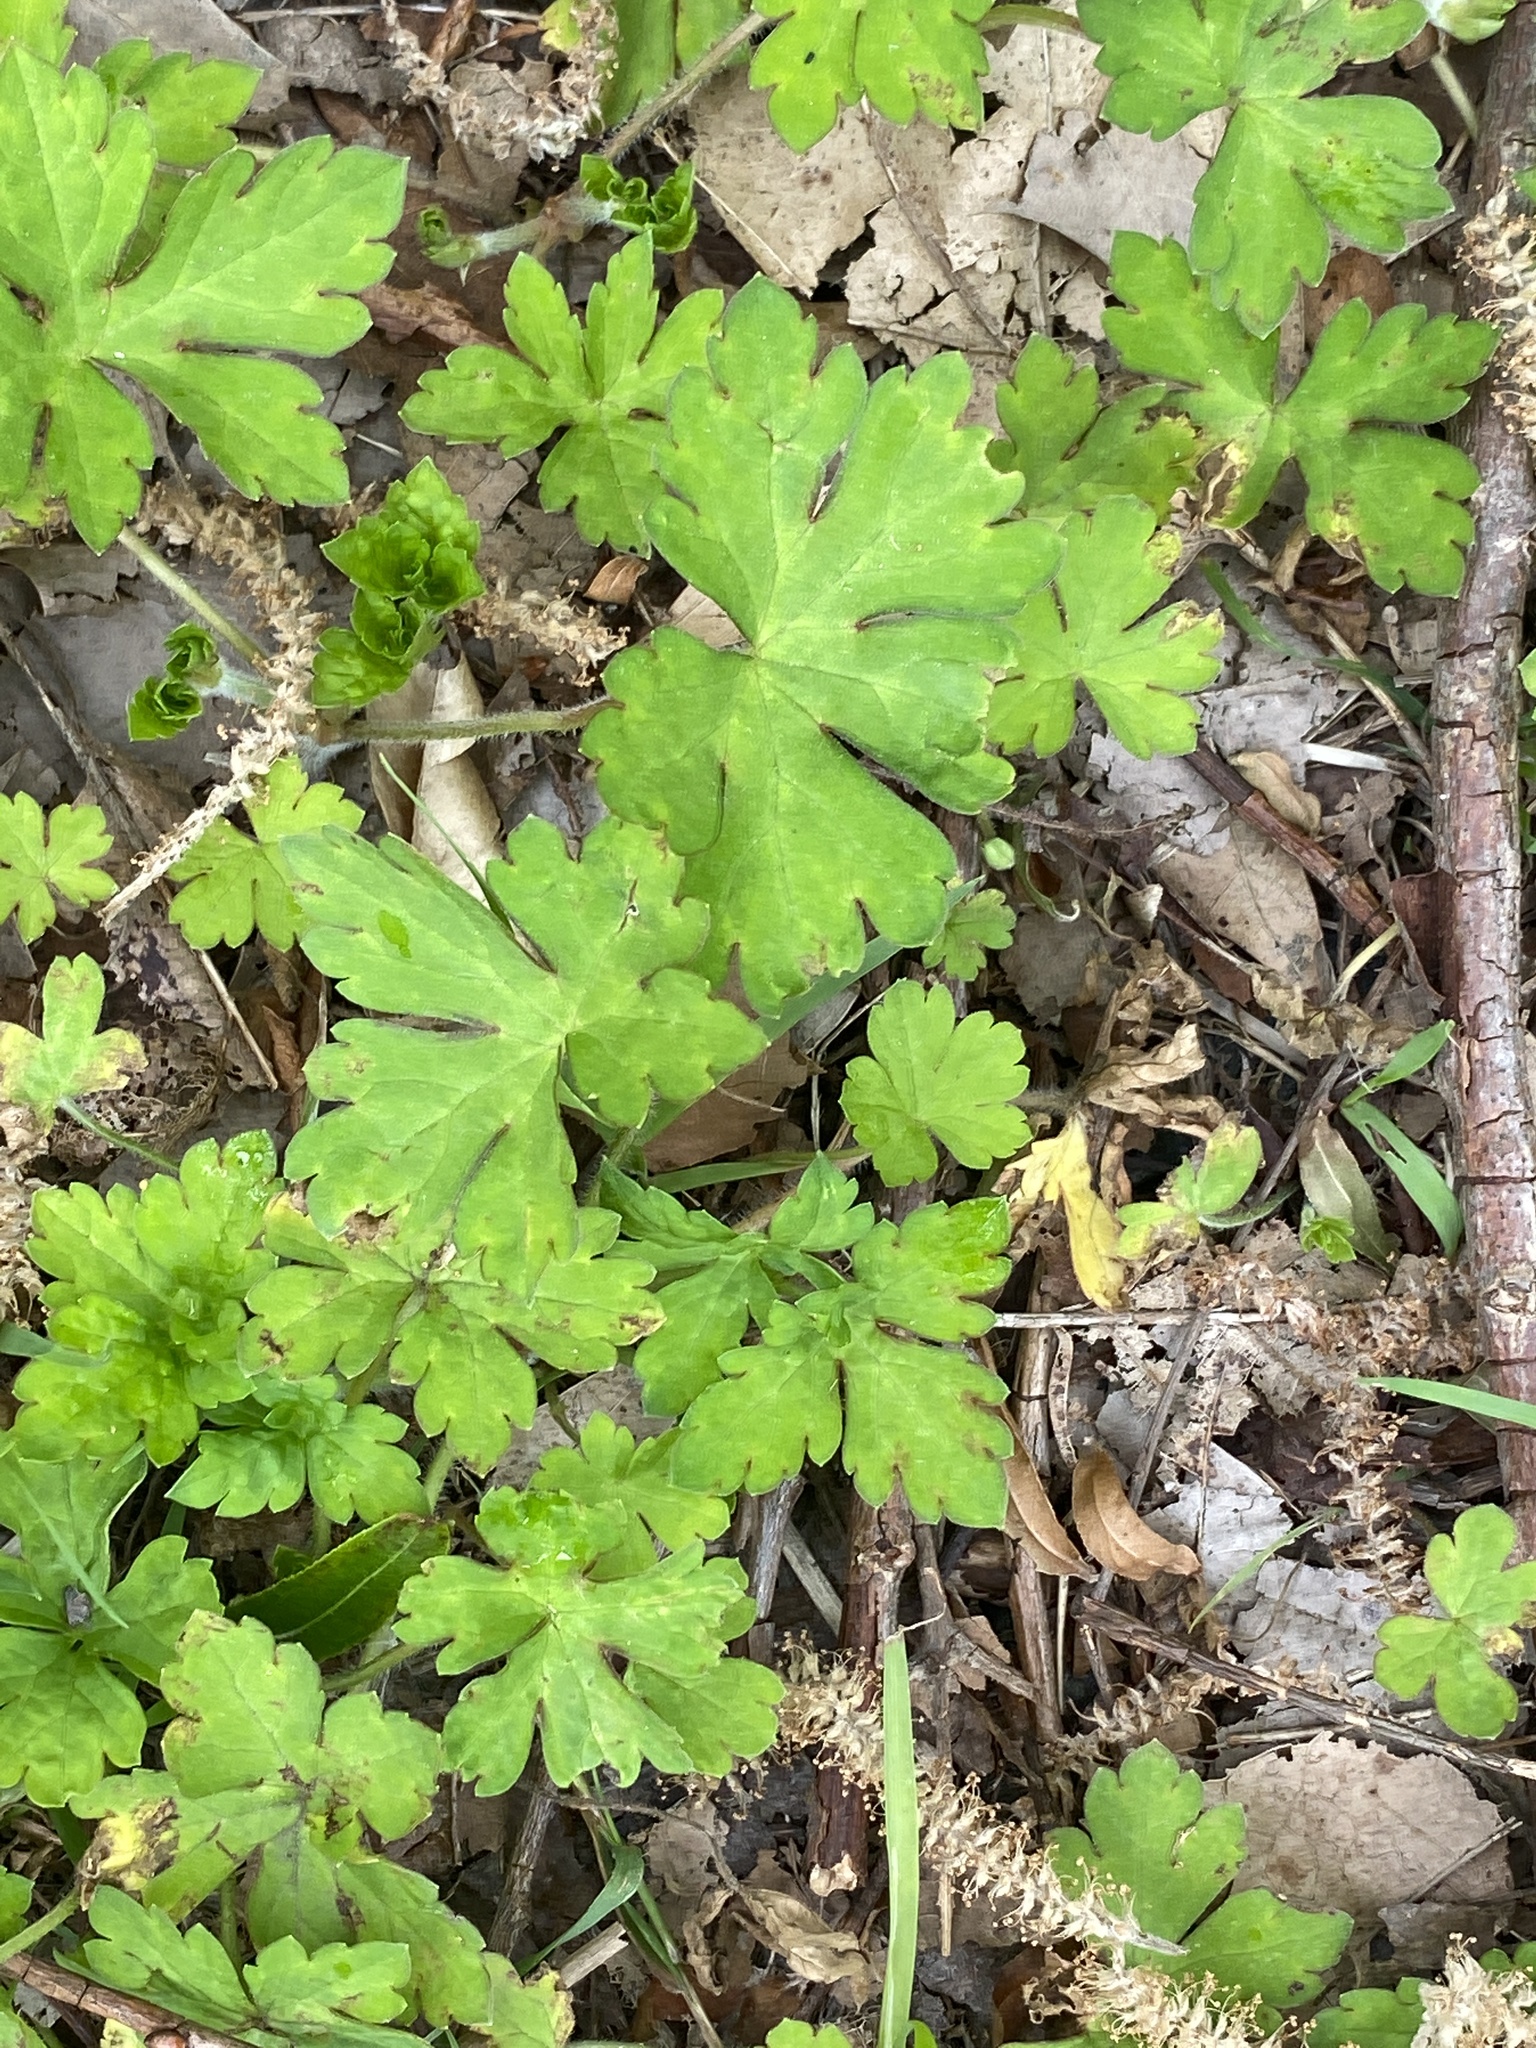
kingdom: Plantae
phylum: Tracheophyta
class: Magnoliopsida
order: Geraniales
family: Geraniaceae
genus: Geranium
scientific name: Geranium thunbergii
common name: Dewdrop crane's-bill
